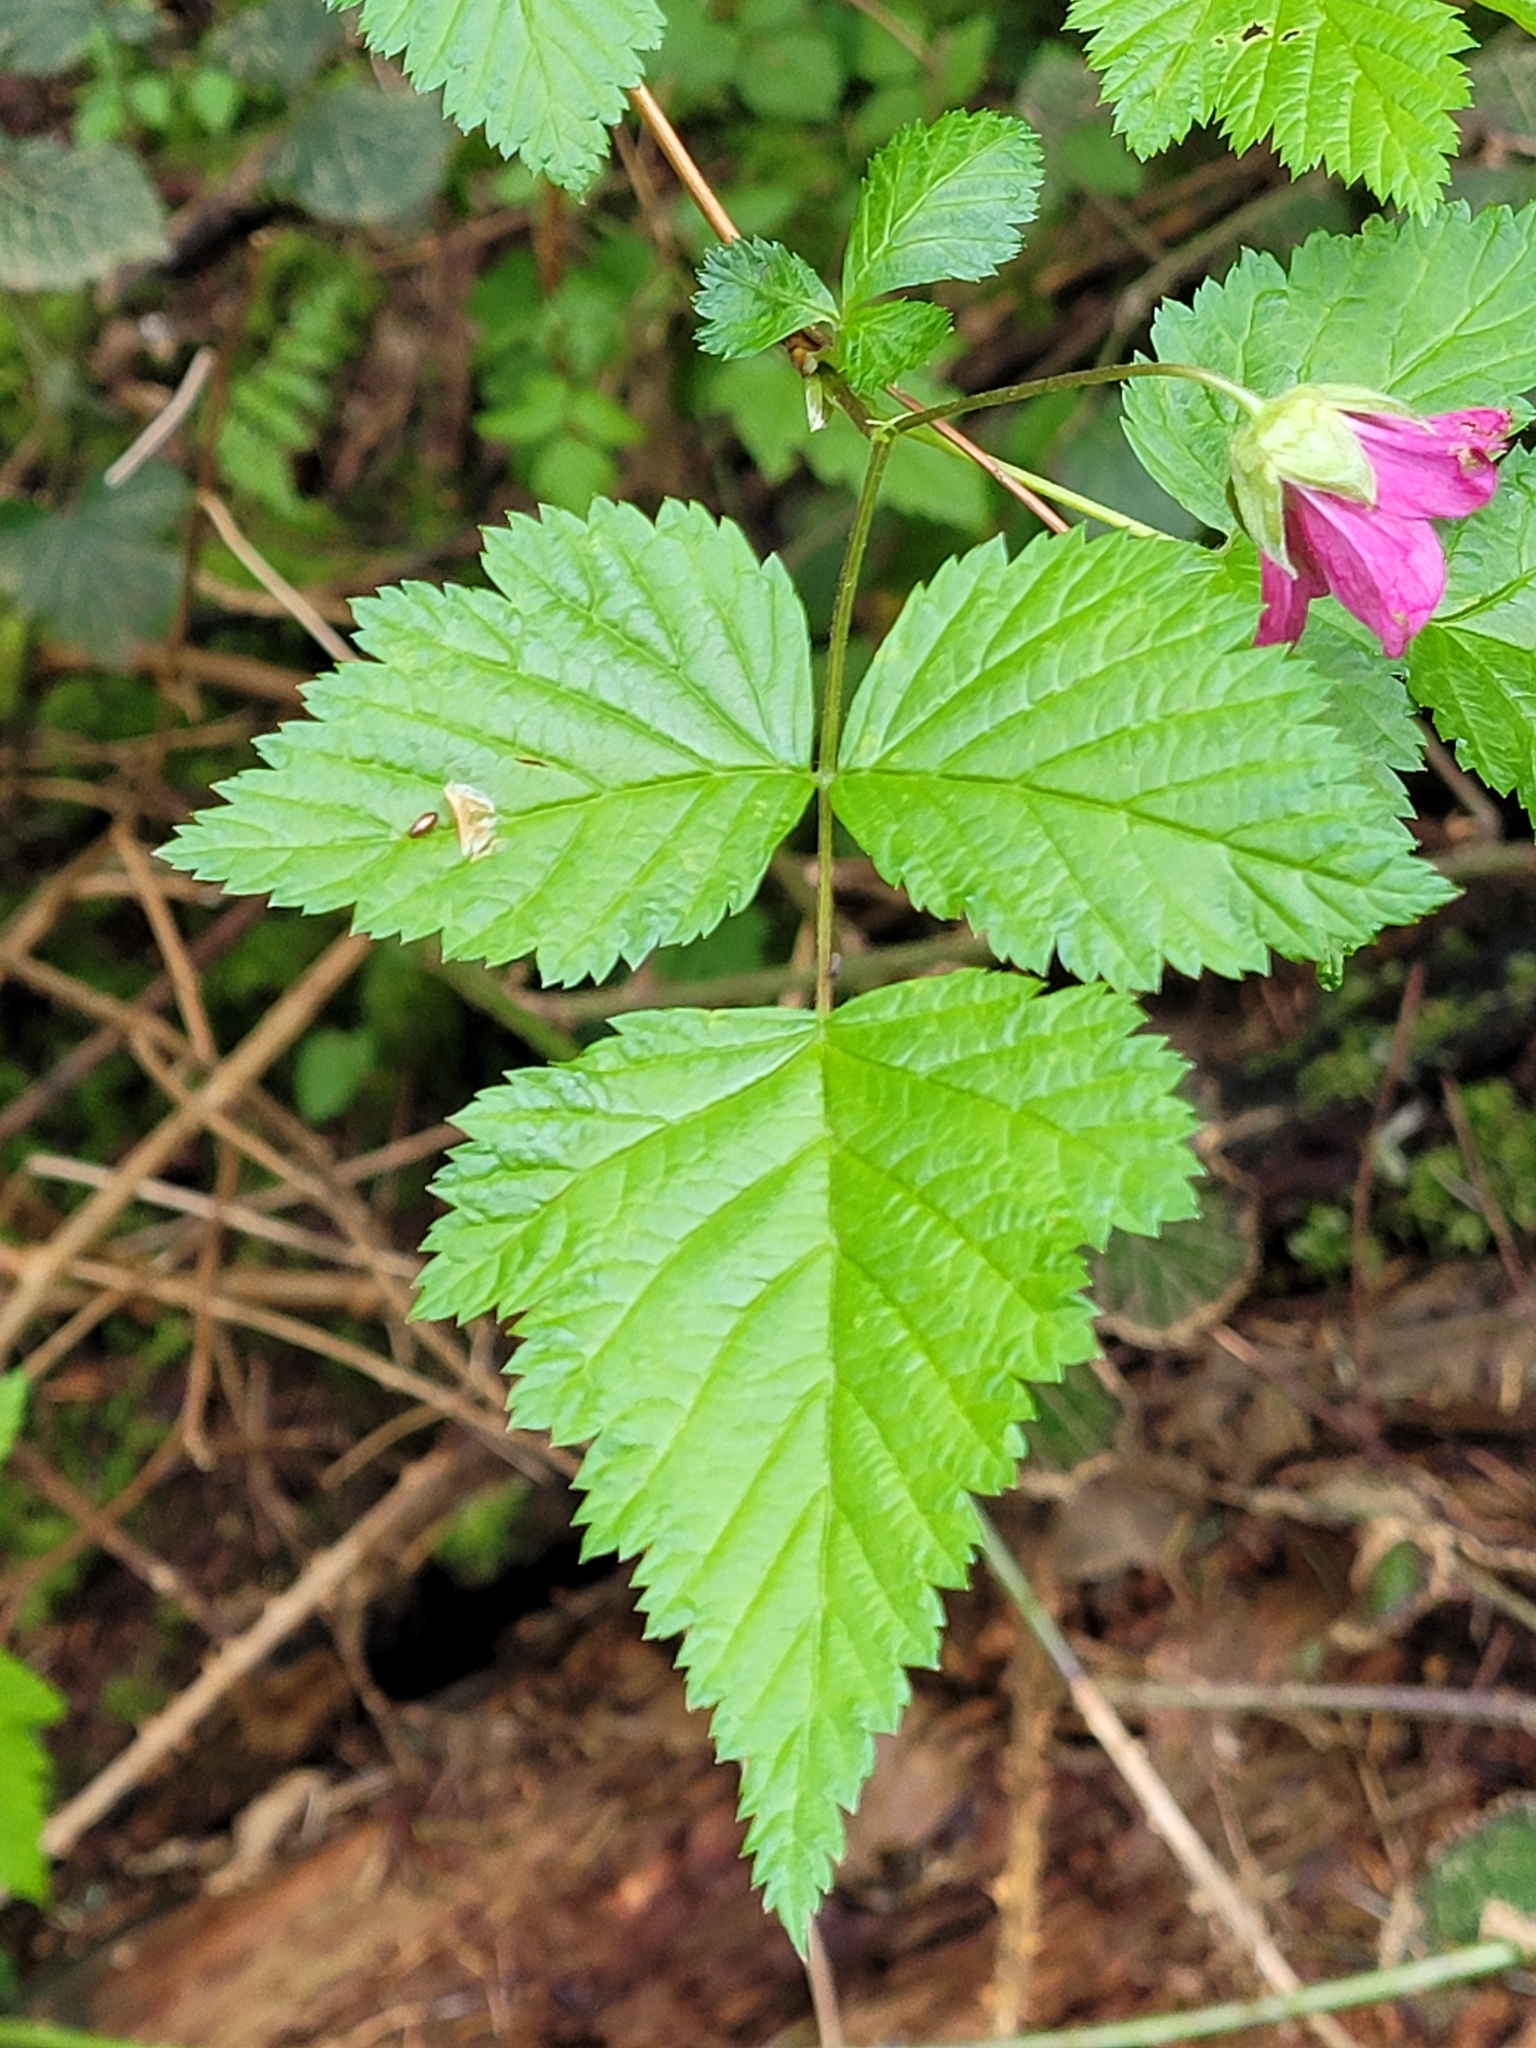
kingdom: Plantae
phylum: Tracheophyta
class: Magnoliopsida
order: Rosales
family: Rosaceae
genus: Rubus
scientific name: Rubus spectabilis
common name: Salmonberry
